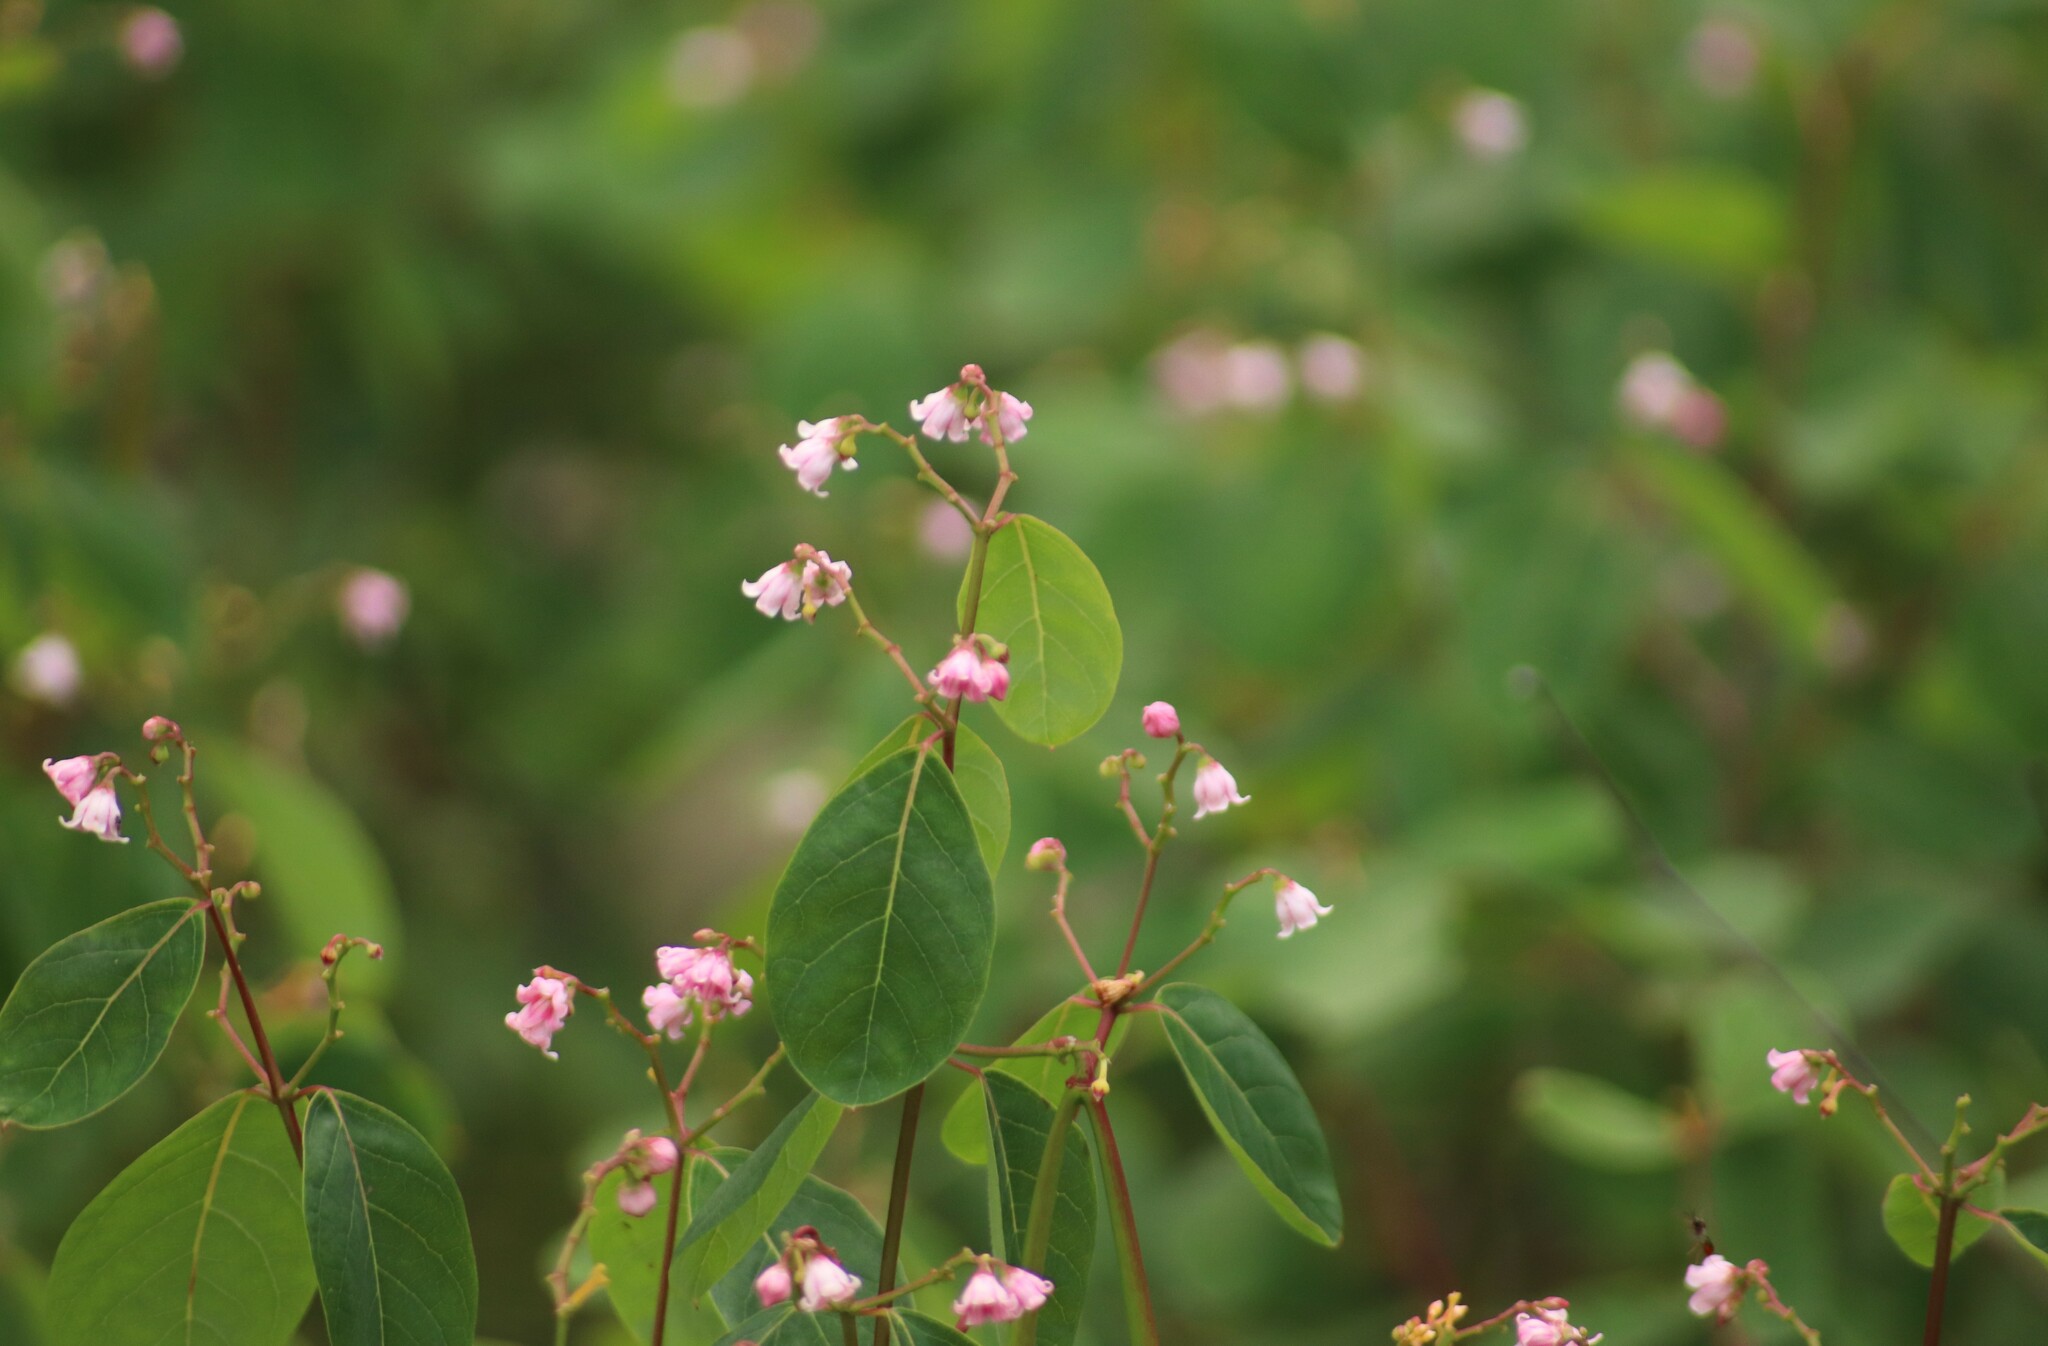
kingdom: Plantae
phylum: Tracheophyta
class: Magnoliopsida
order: Gentianales
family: Apocynaceae
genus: Apocynum
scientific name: Apocynum androsaemifolium
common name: Spreading dogbane
